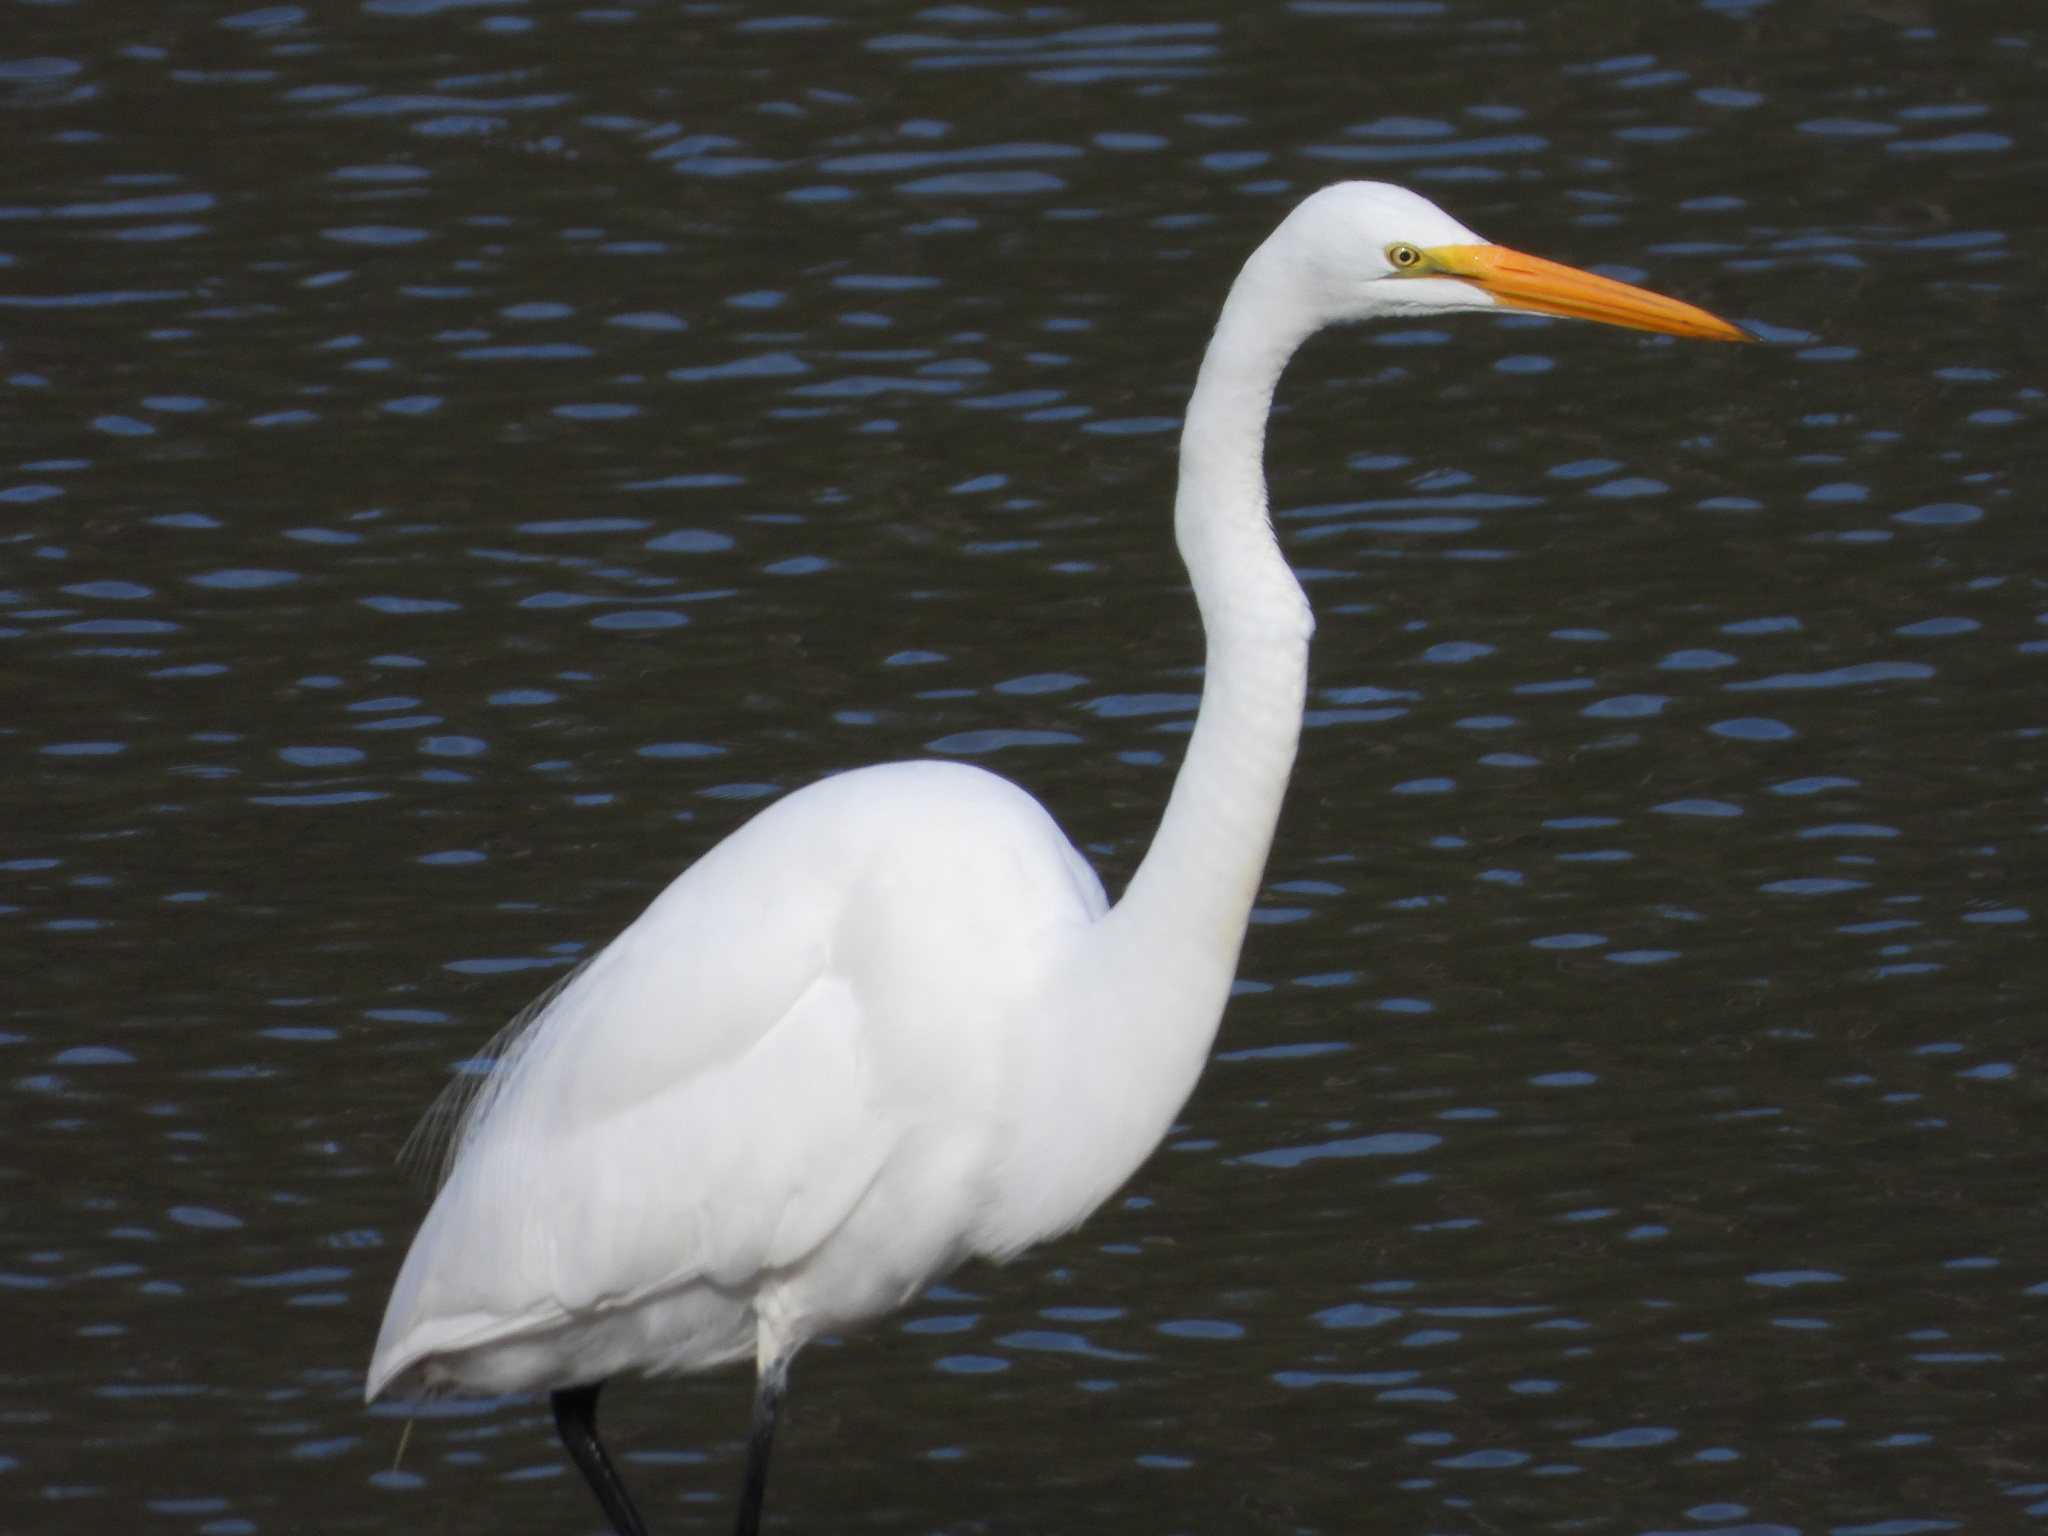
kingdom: Animalia
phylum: Chordata
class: Aves
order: Pelecaniformes
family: Ardeidae
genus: Ardea
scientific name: Ardea alba
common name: Great egret
